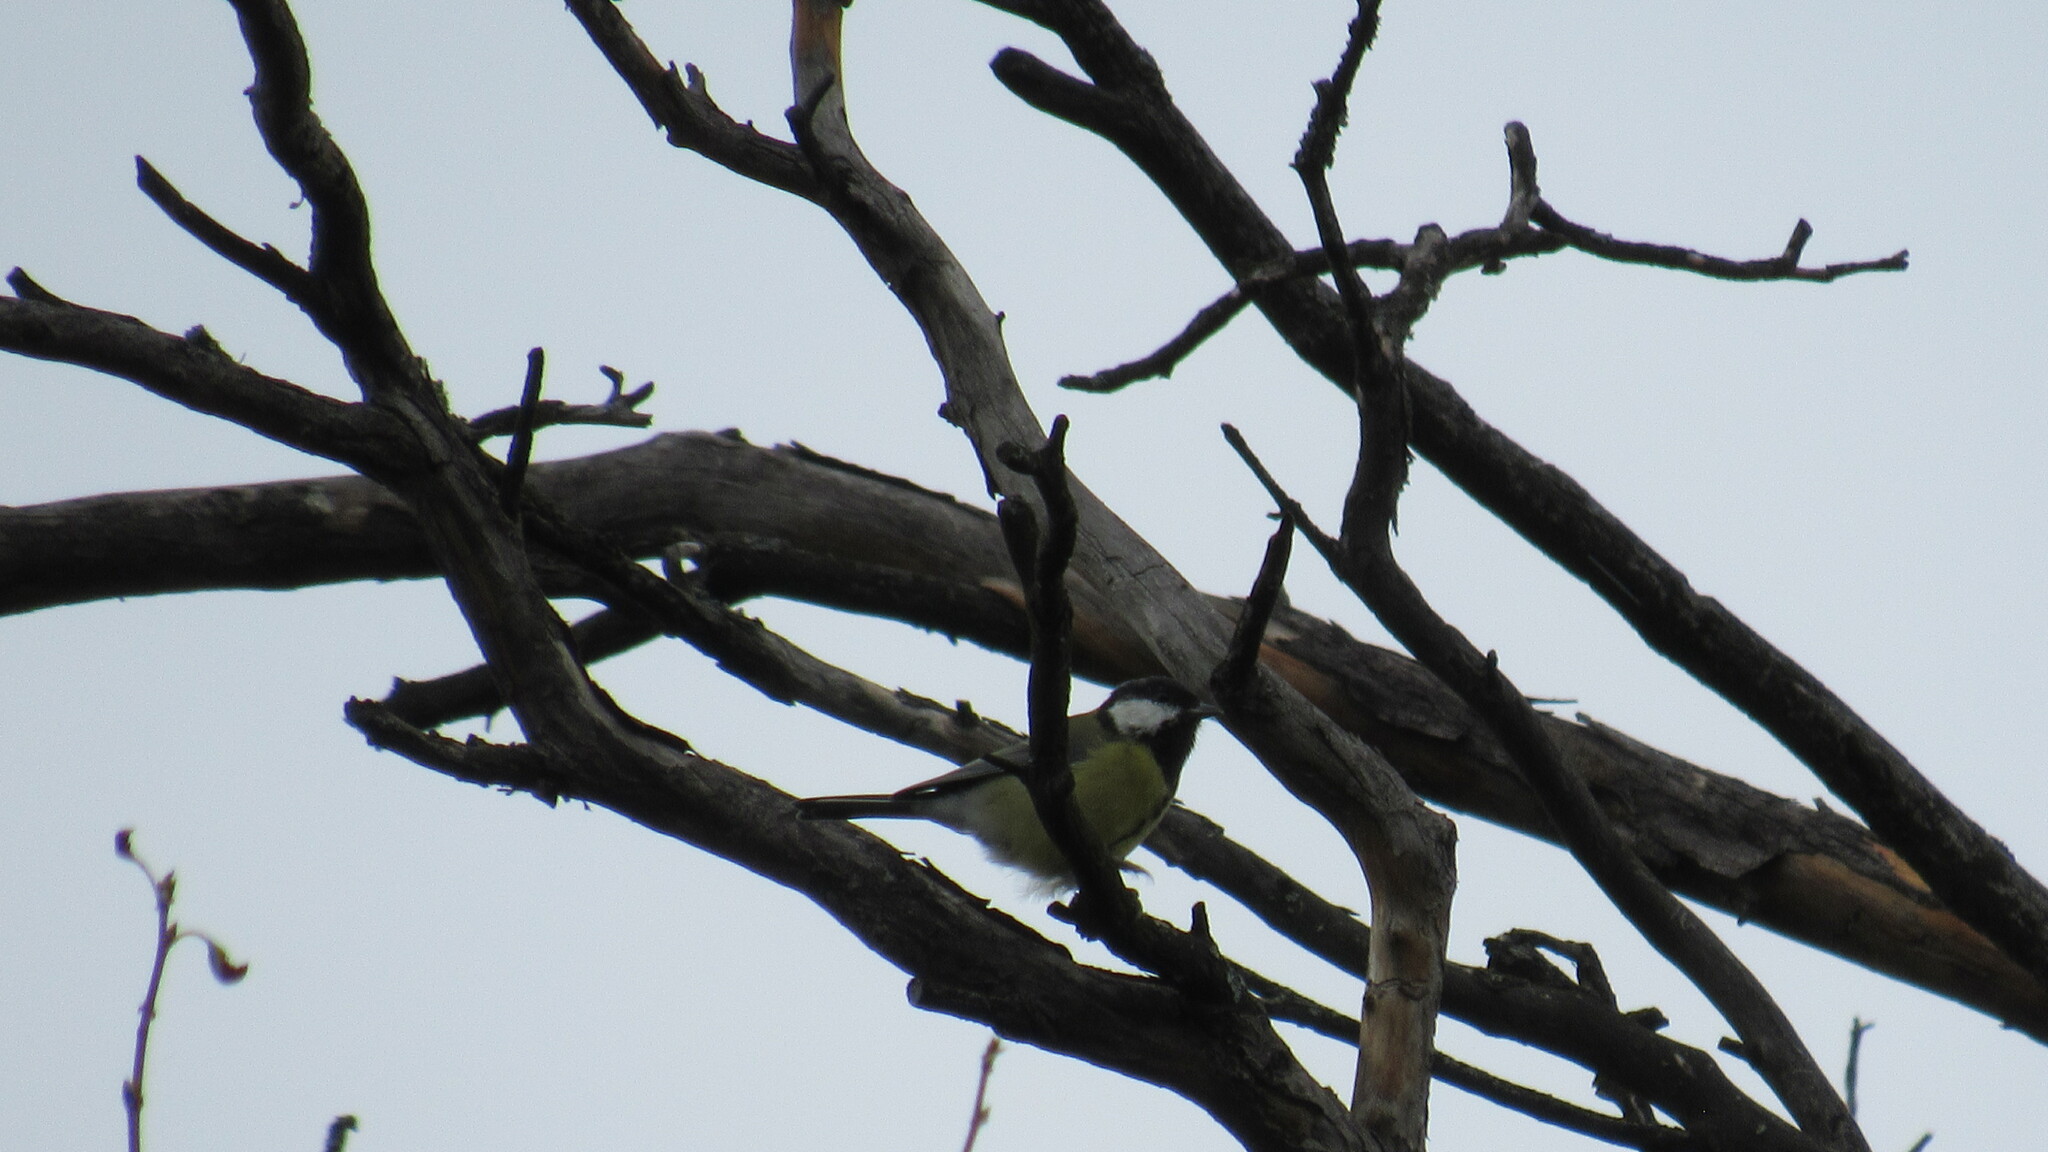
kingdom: Animalia
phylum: Chordata
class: Aves
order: Passeriformes
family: Paridae
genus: Parus
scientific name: Parus major
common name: Great tit
